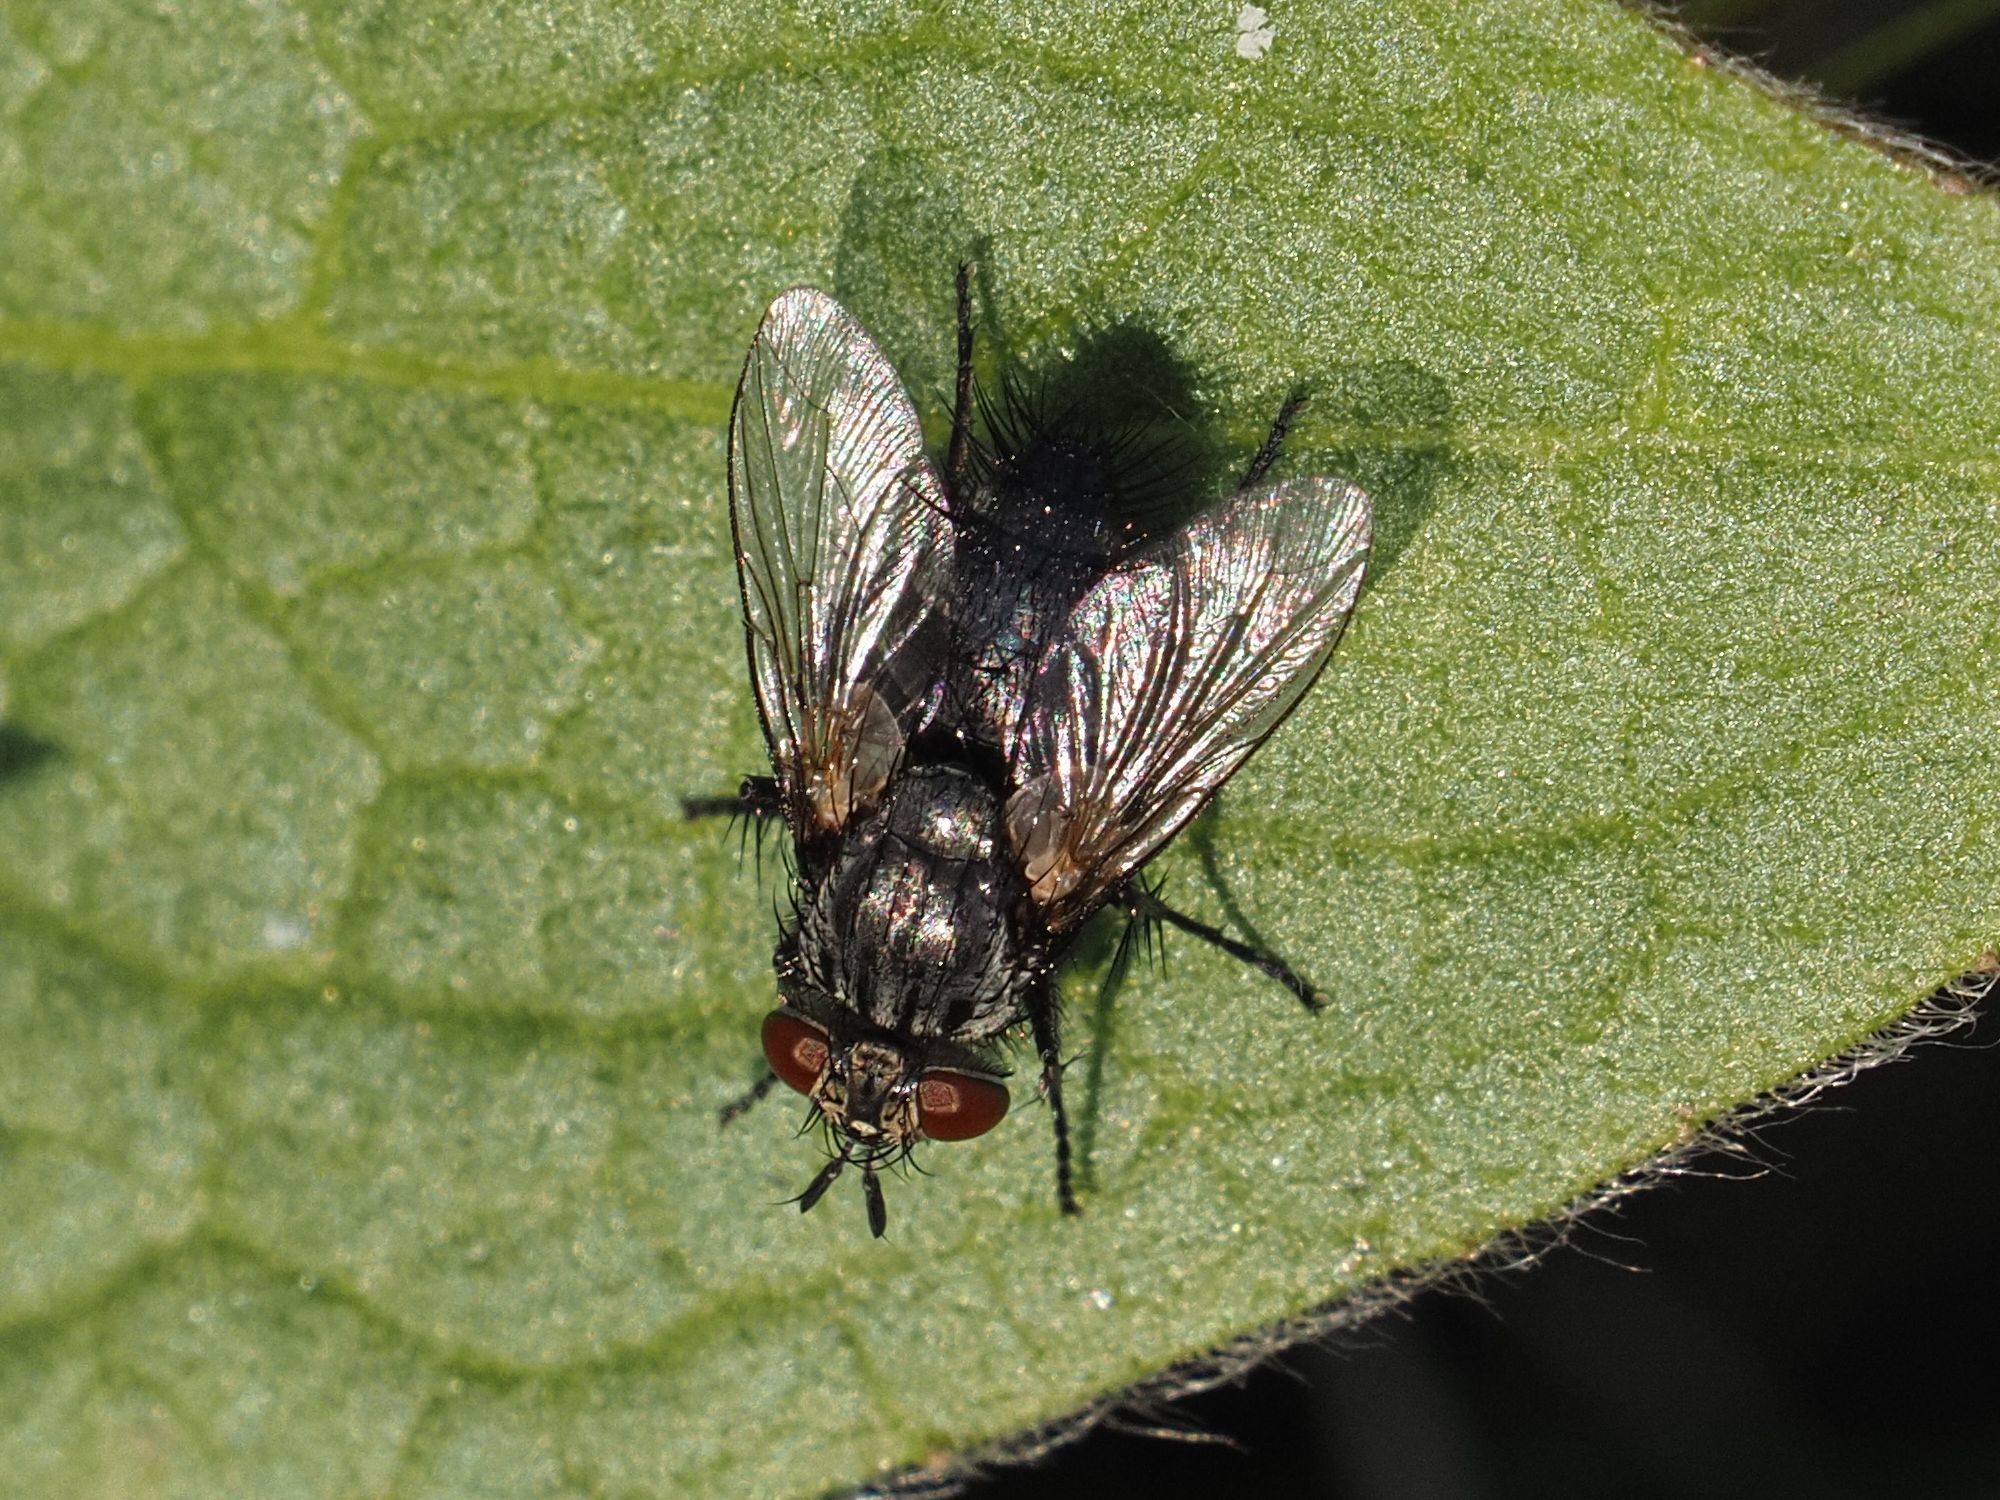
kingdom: Animalia
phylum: Arthropoda
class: Insecta
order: Diptera
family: Tachinidae
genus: Voria
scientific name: Voria ruralis
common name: Parasitic fly
